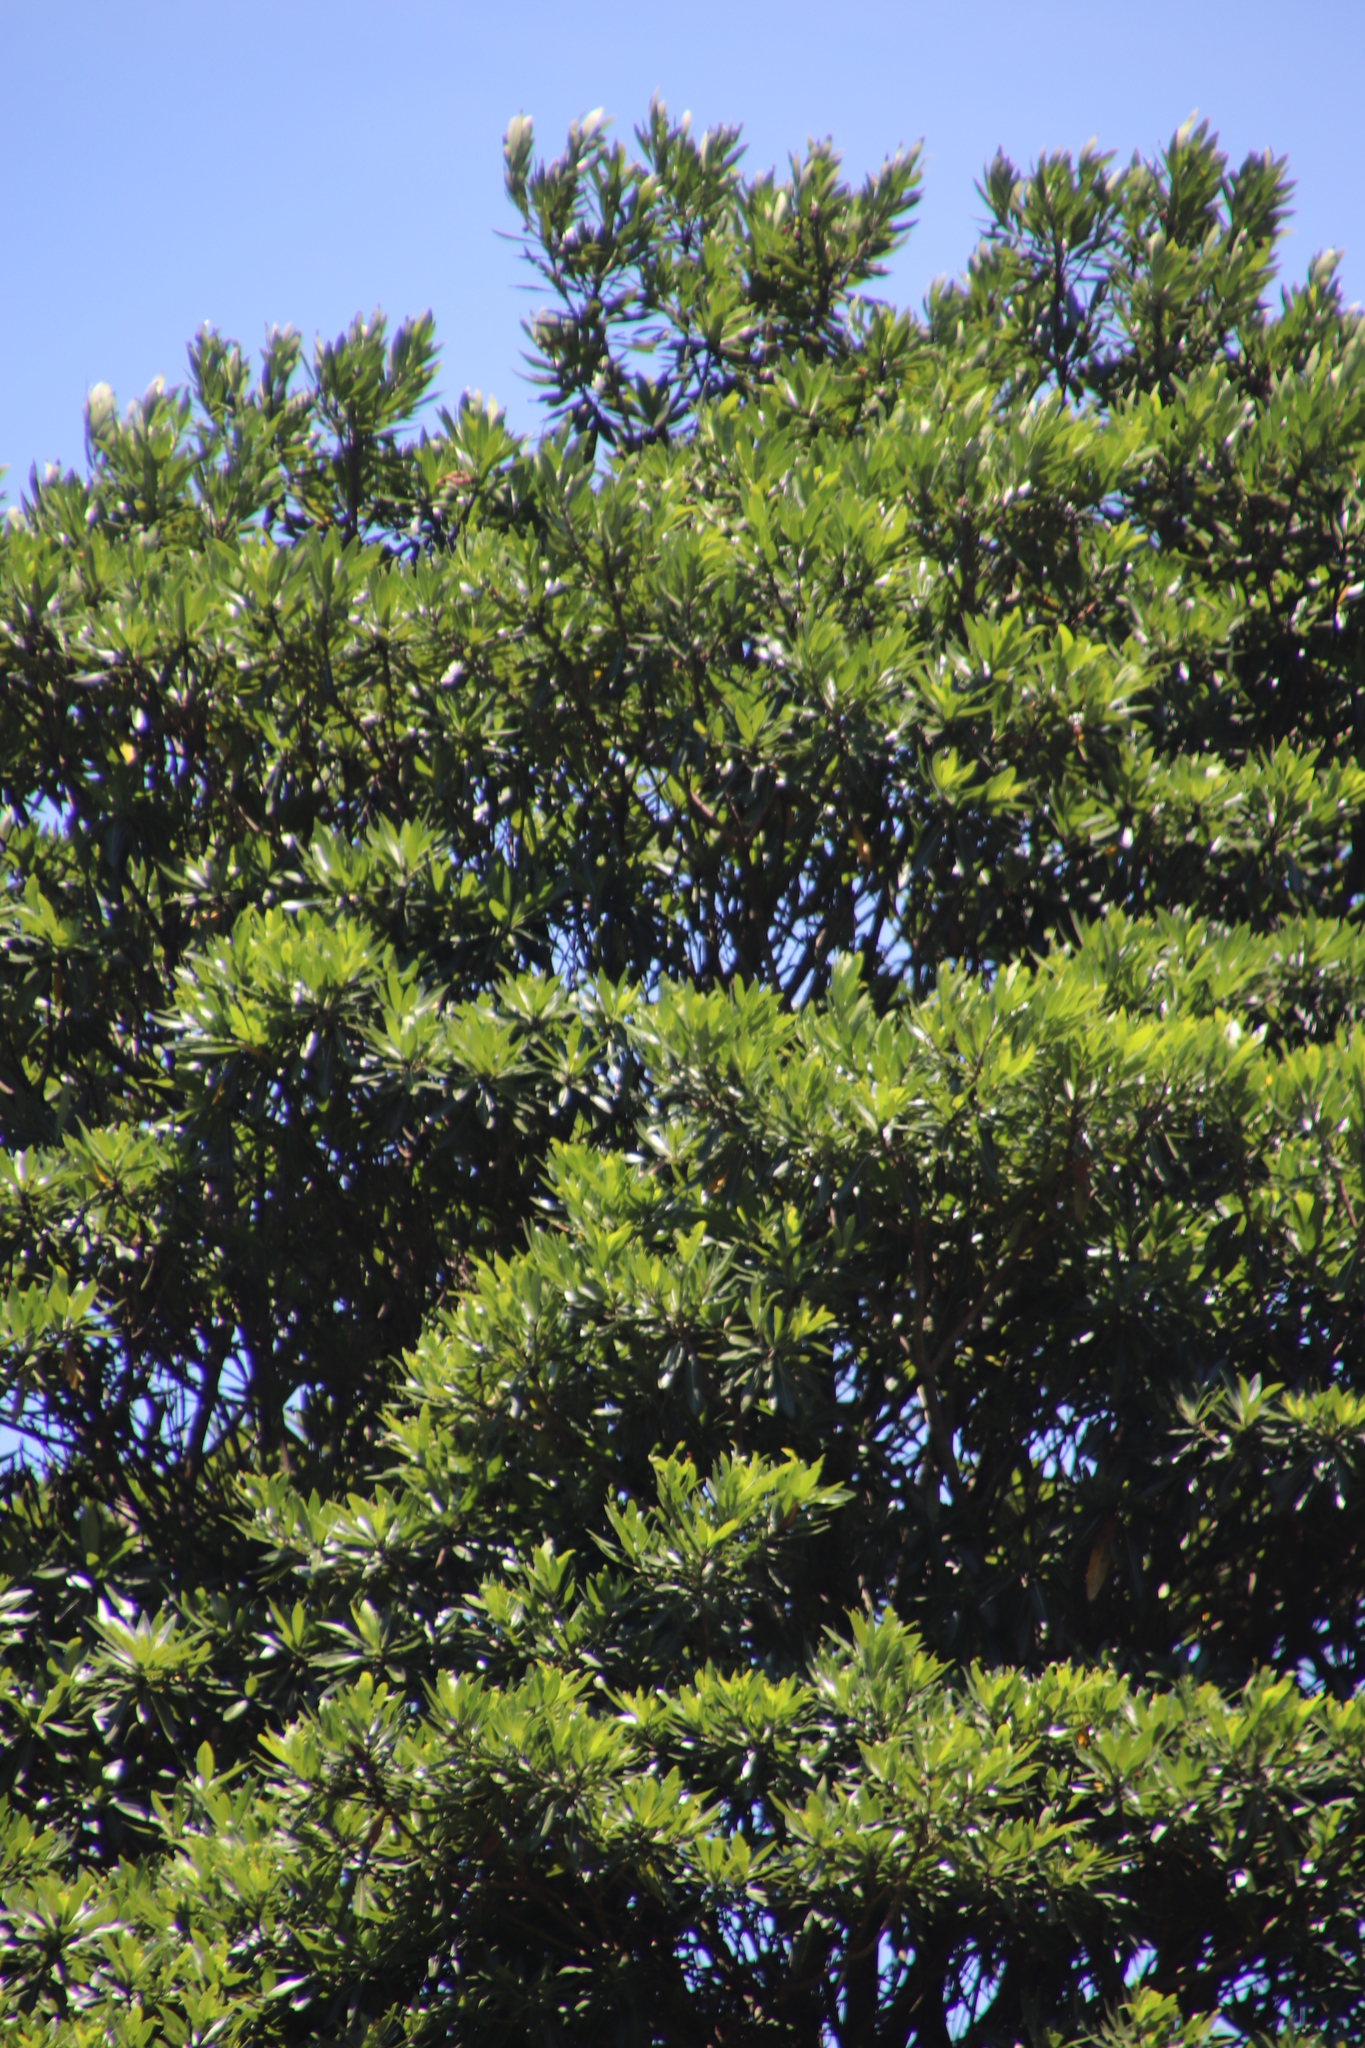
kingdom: Plantae
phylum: Tracheophyta
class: Magnoliopsida
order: Gentianales
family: Rubiaceae
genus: Breonadia
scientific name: Breonadia salicina
